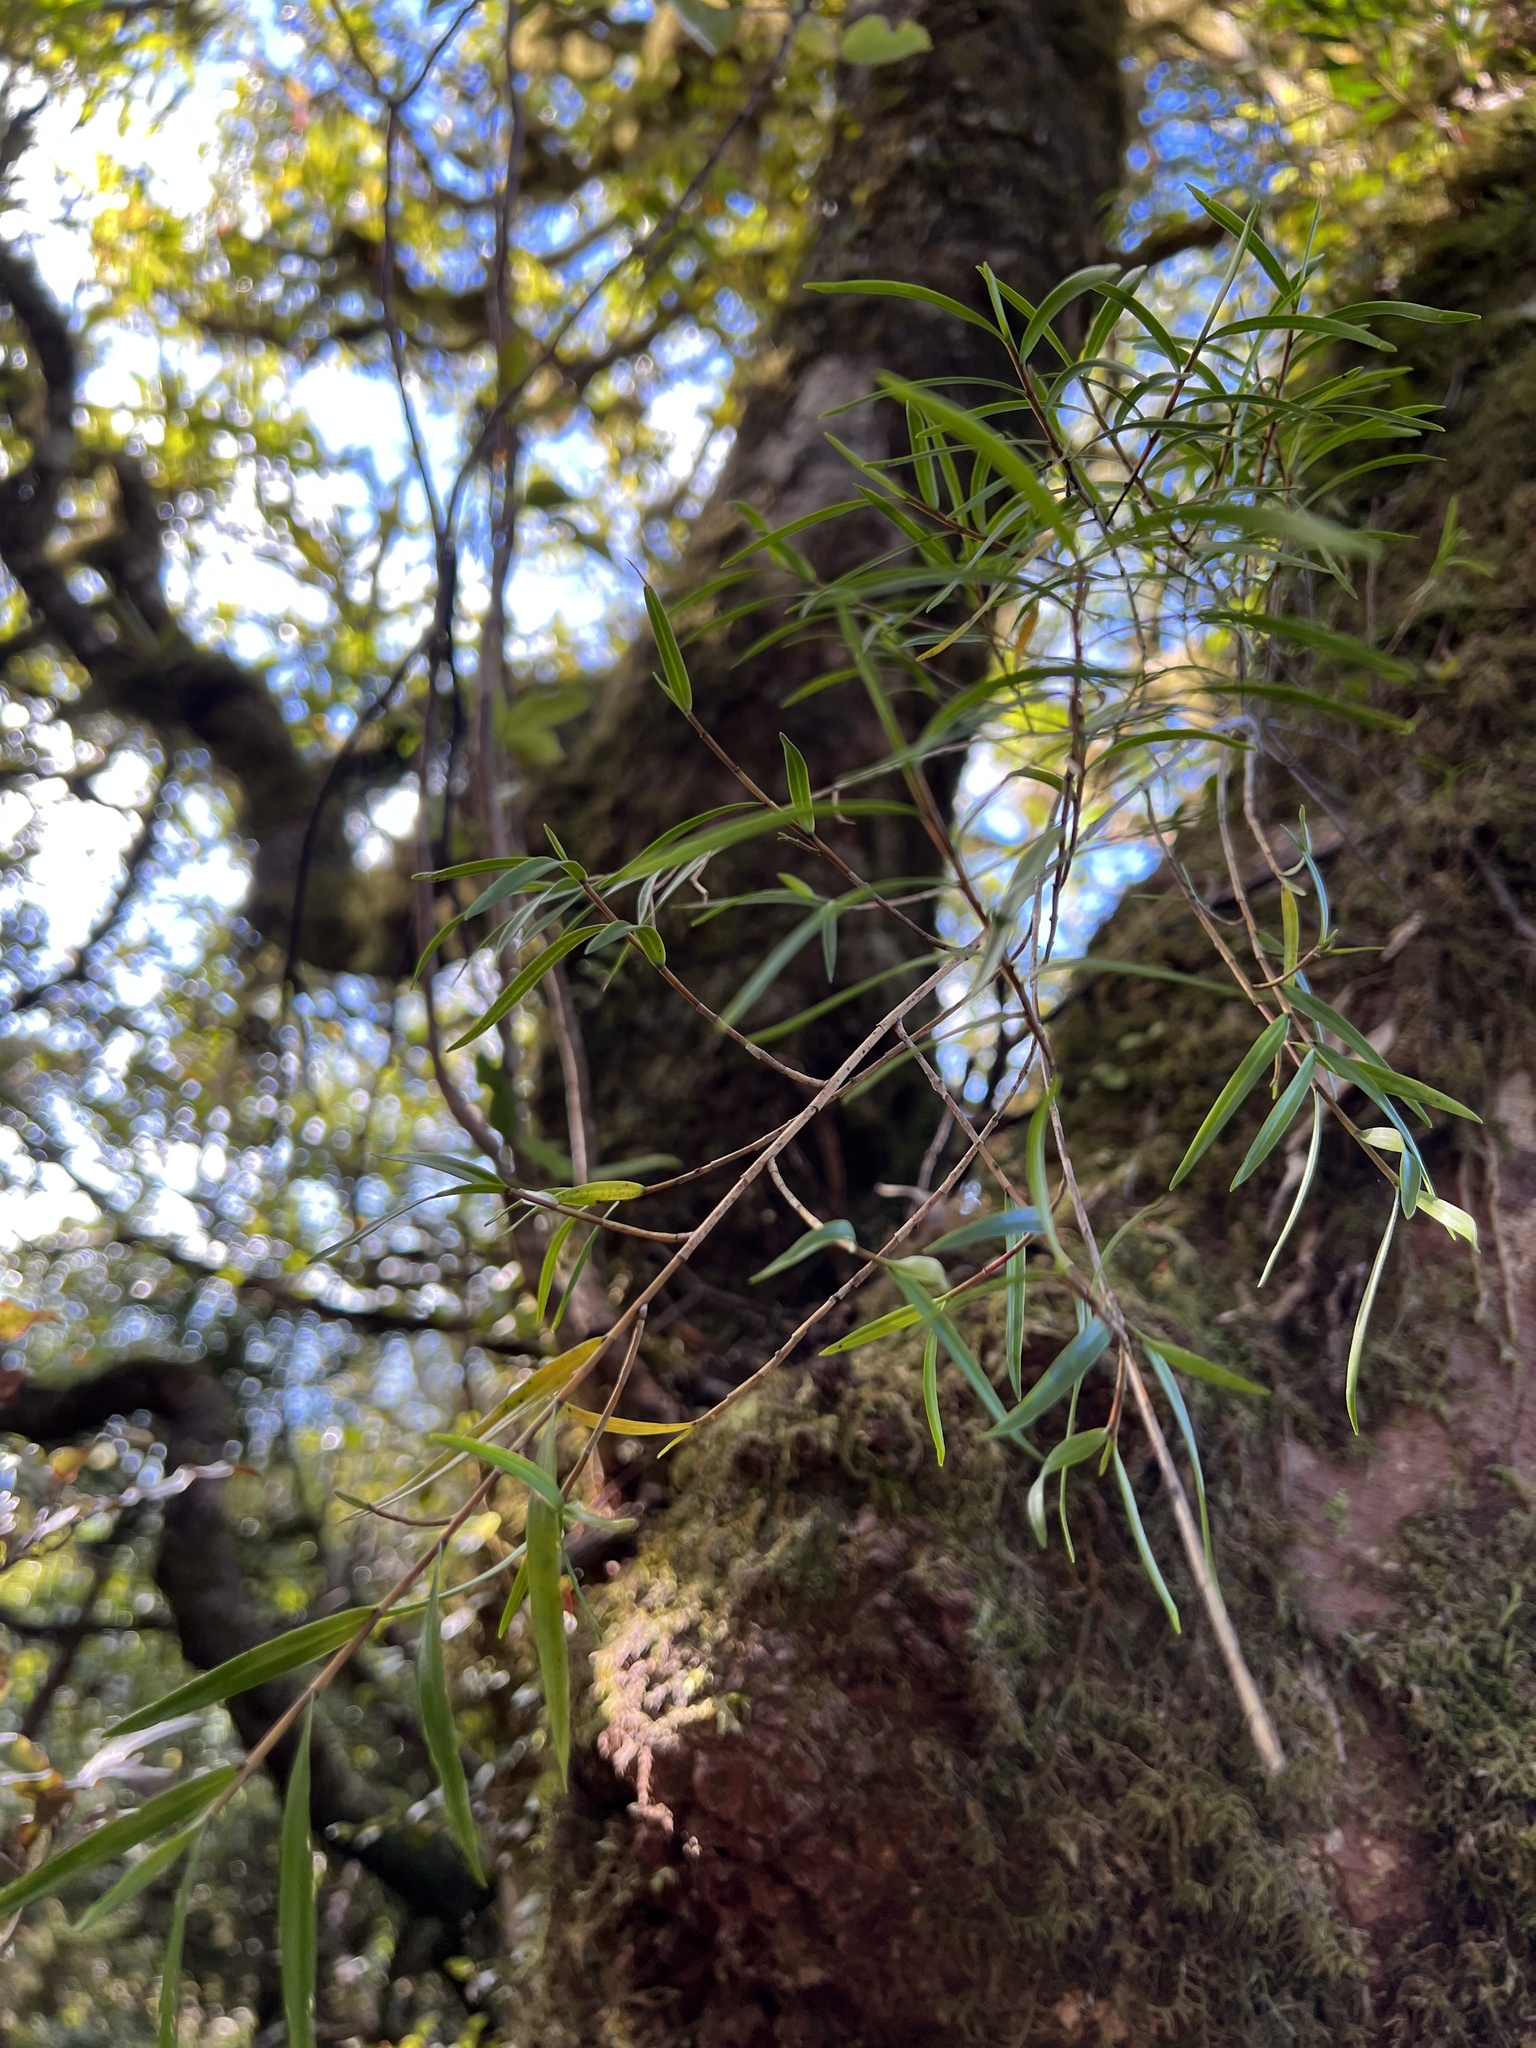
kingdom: Plantae
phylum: Tracheophyta
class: Liliopsida
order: Asparagales
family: Orchidaceae
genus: Dendrobium
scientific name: Dendrobium cunninghamii
